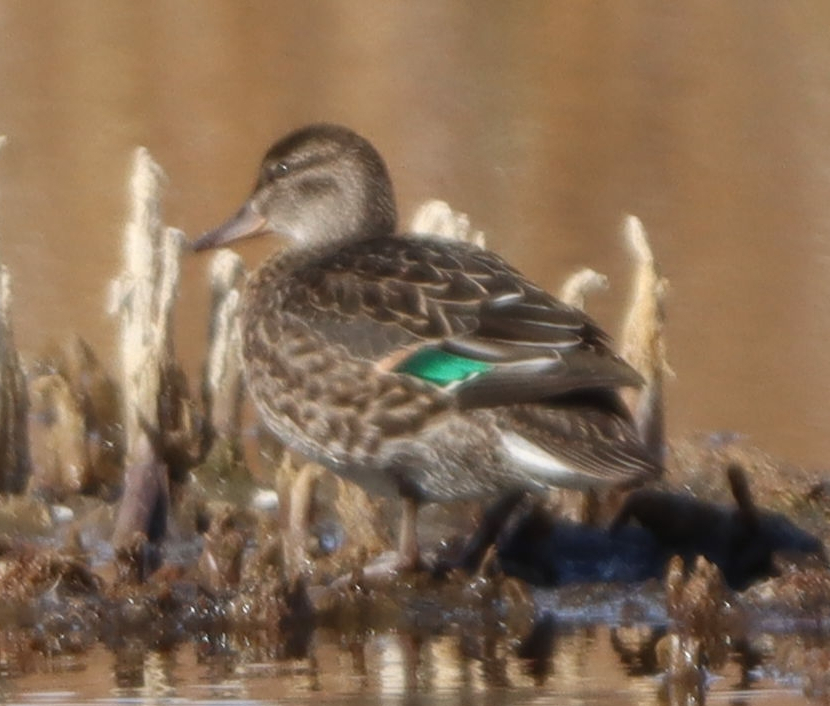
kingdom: Animalia
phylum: Chordata
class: Aves
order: Anseriformes
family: Anatidae
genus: Anas
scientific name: Anas crecca
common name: Eurasian teal
